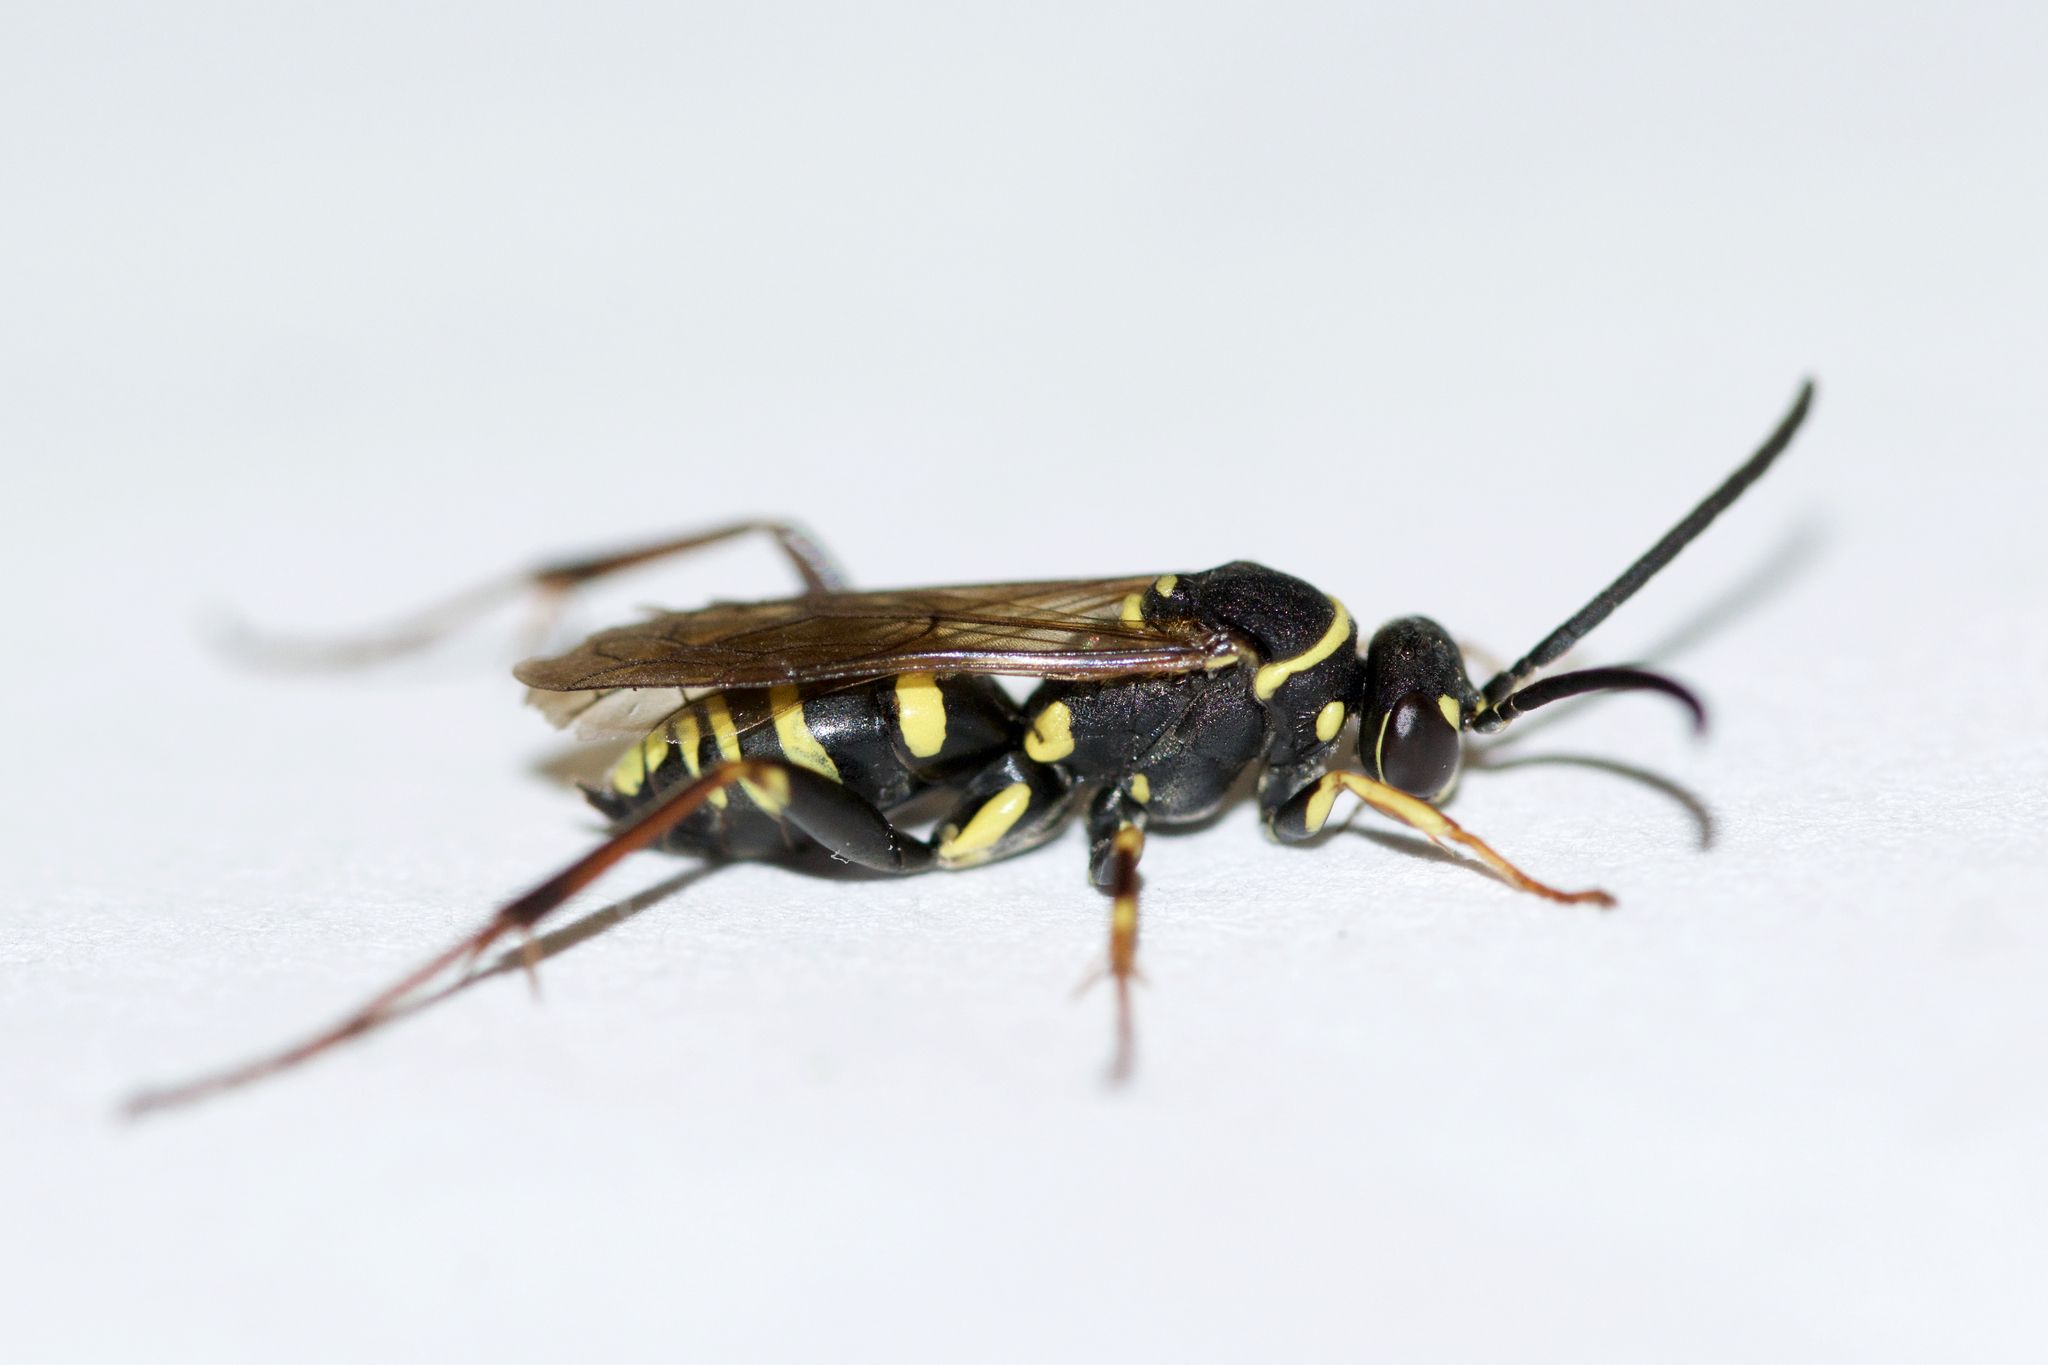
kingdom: Animalia
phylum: Arthropoda
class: Insecta
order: Hymenoptera
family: Pompilidae
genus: Ceropales
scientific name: Ceropales maculata
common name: Spider wasp
